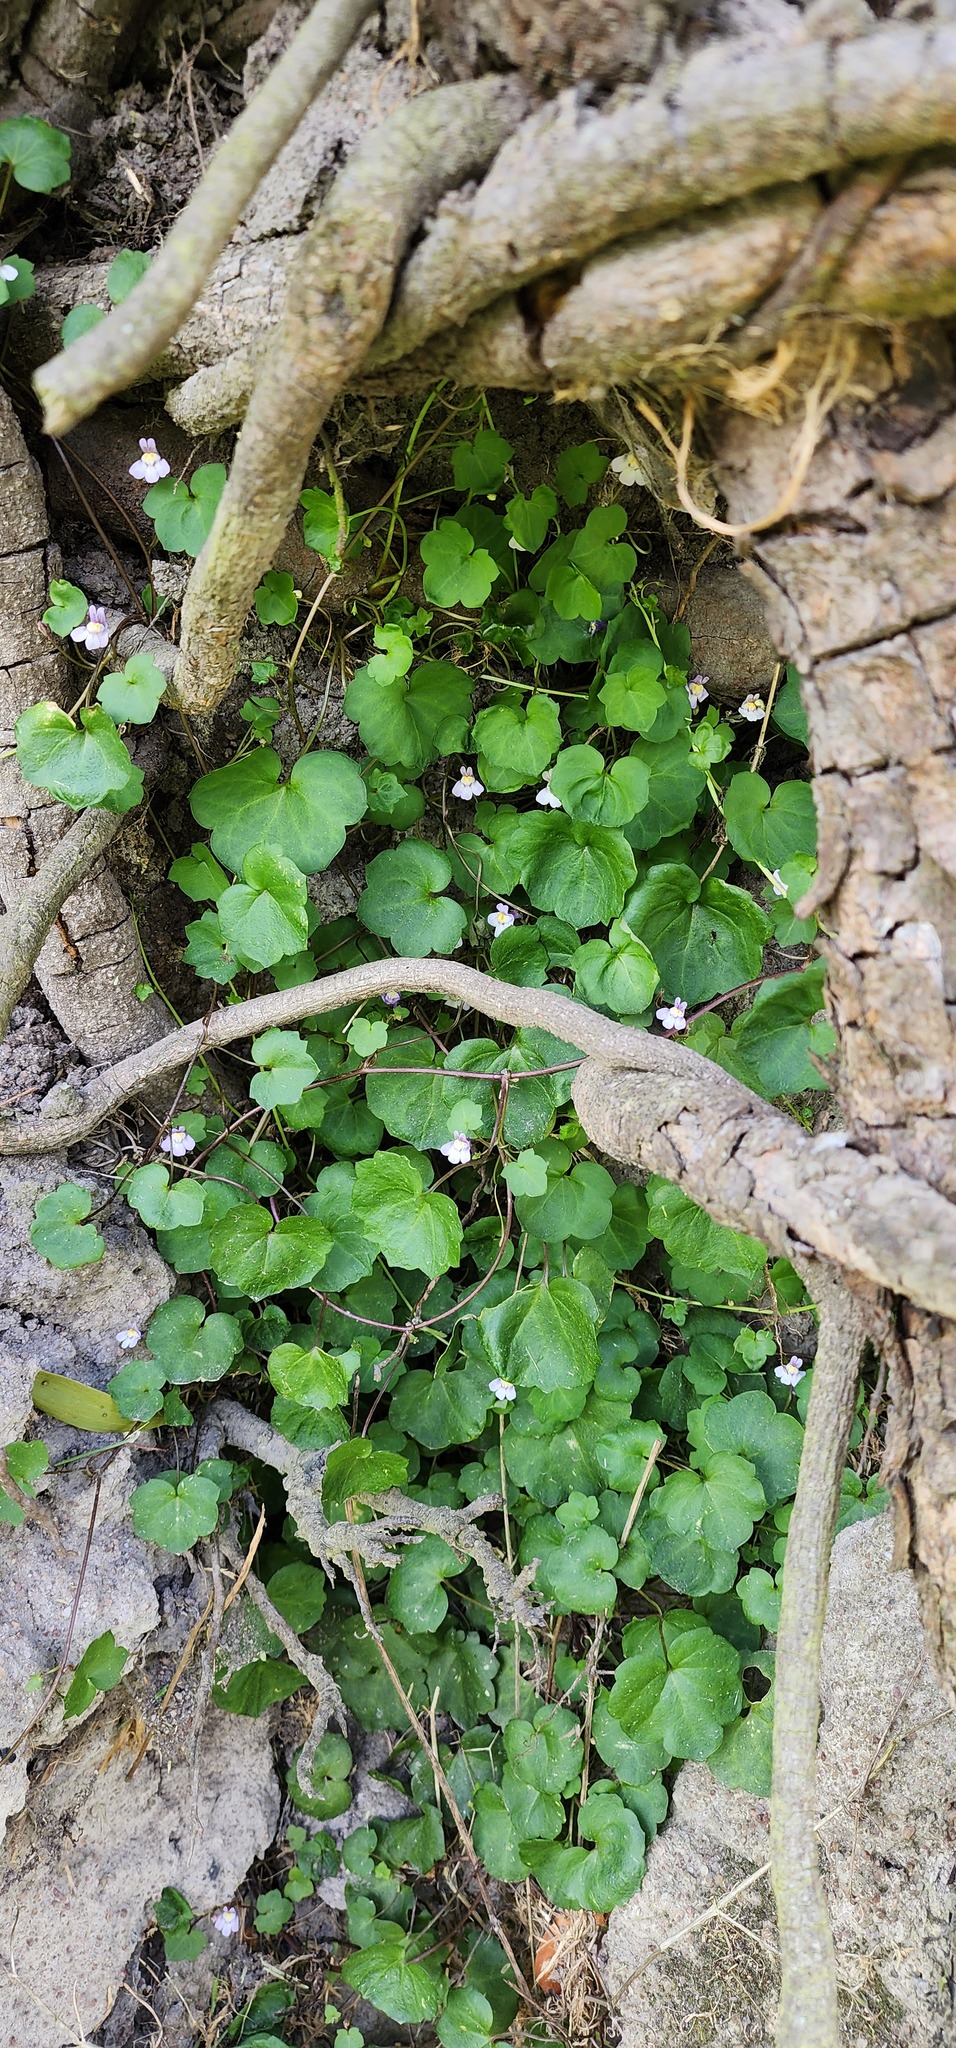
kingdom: Plantae
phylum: Tracheophyta
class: Magnoliopsida
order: Lamiales
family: Plantaginaceae
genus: Cymbalaria
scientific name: Cymbalaria muralis
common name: Ivy-leaved toadflax
